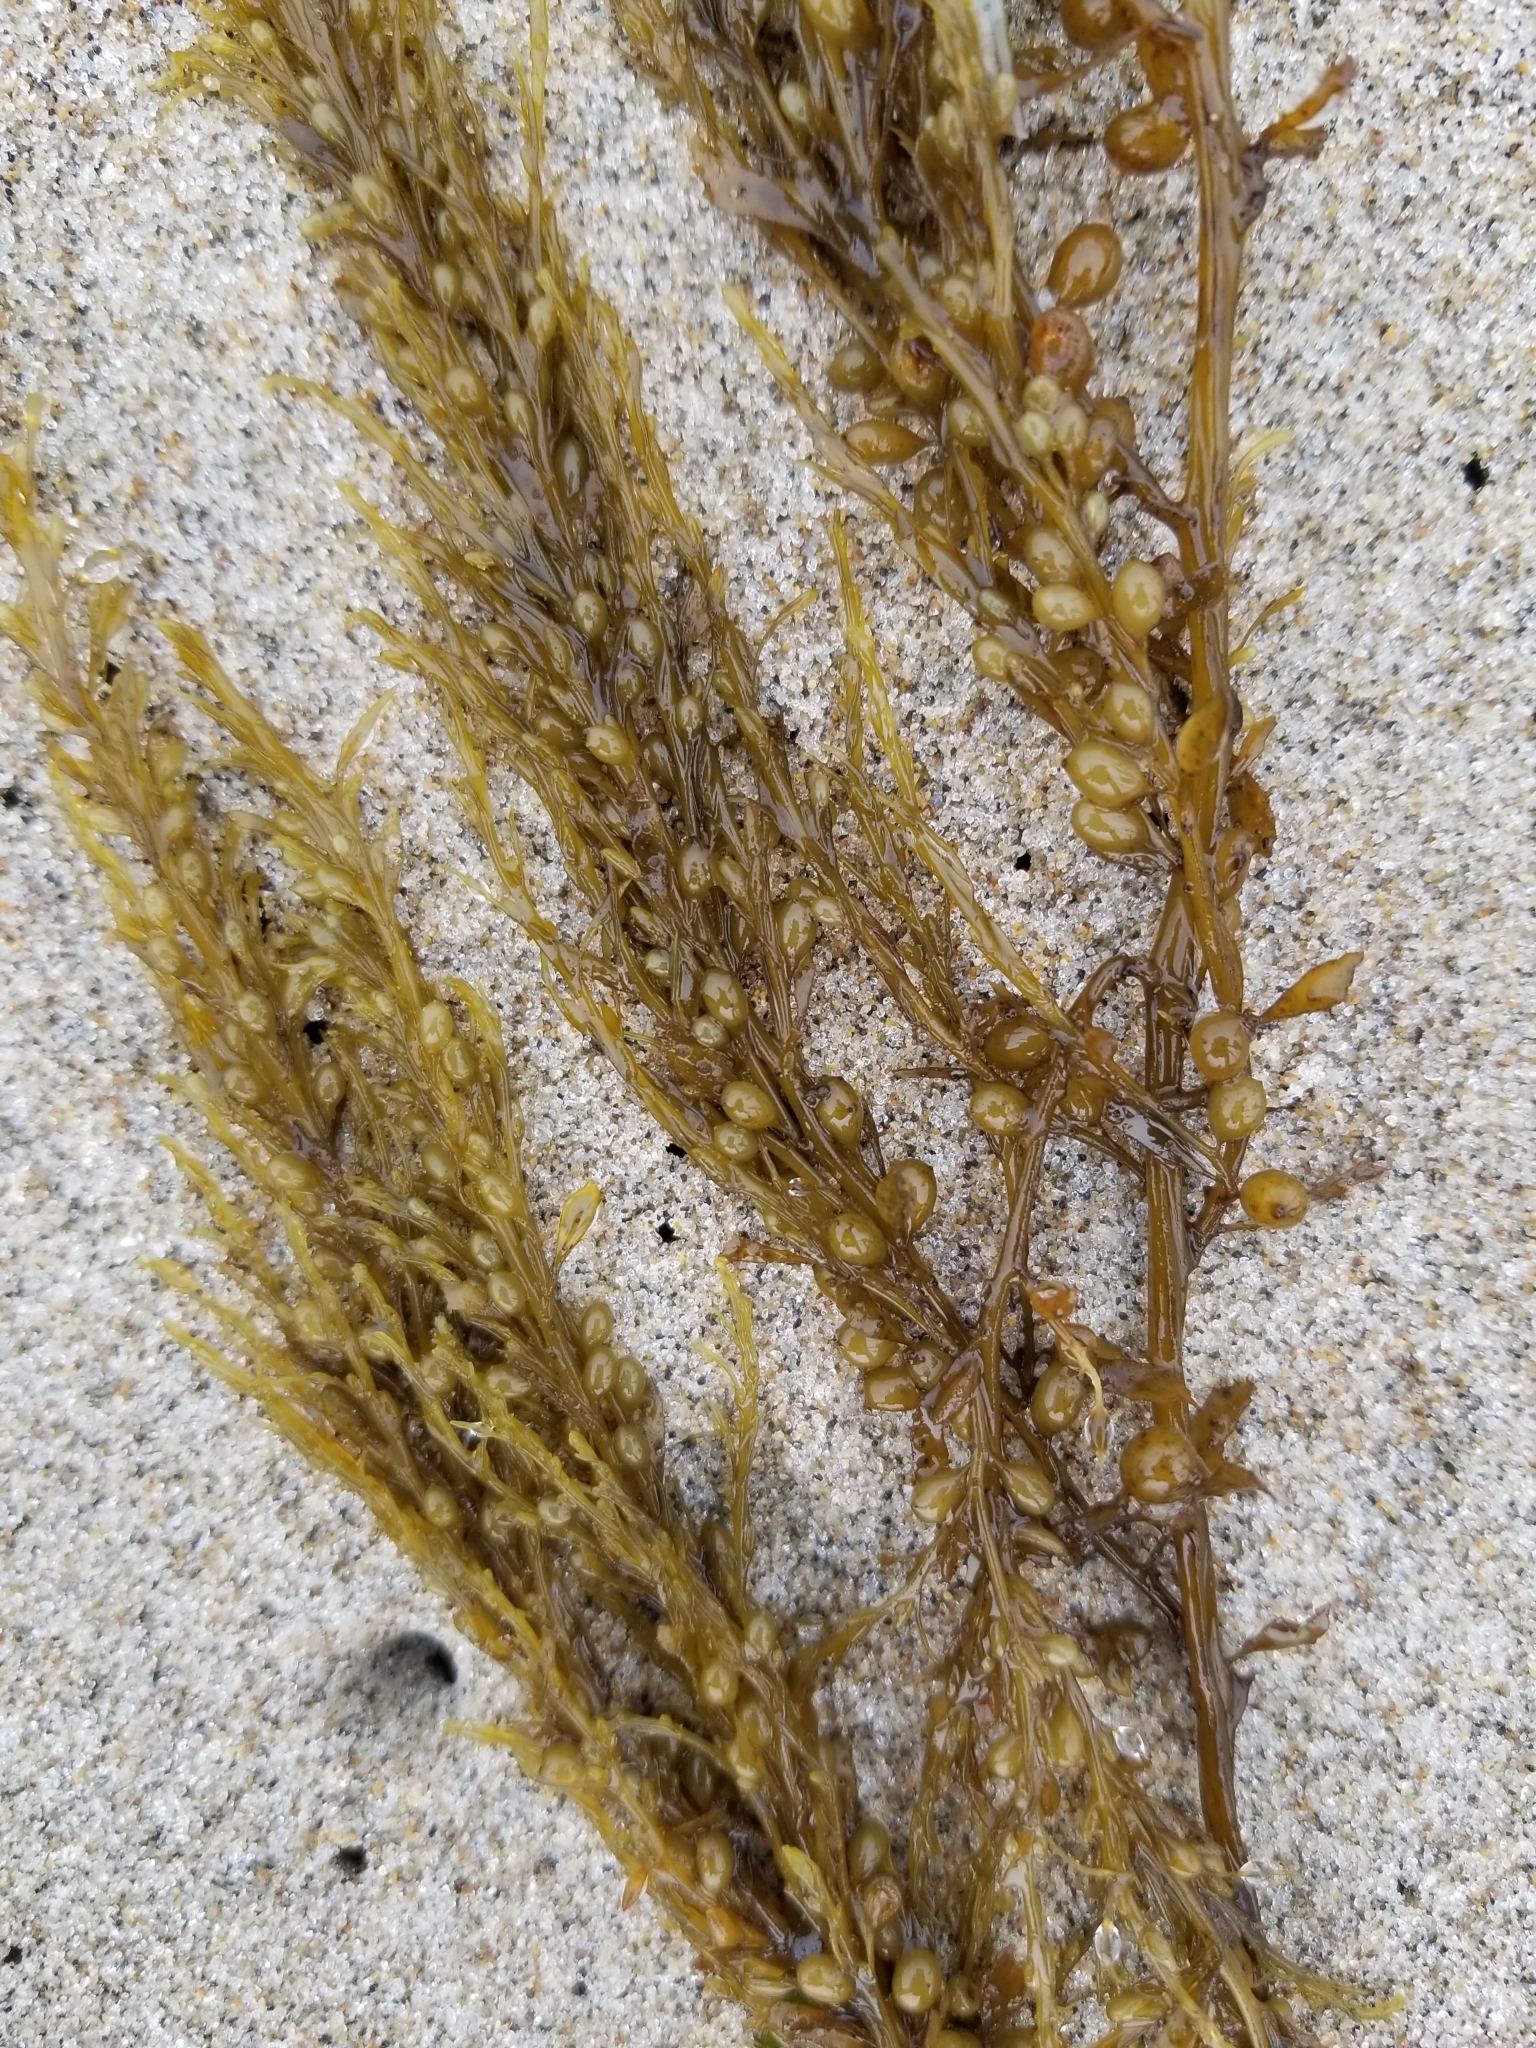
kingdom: Chromista
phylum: Ochrophyta
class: Phaeophyceae
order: Fucales
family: Sargassaceae
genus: Sargassum
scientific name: Sargassum muticum
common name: Japweed
